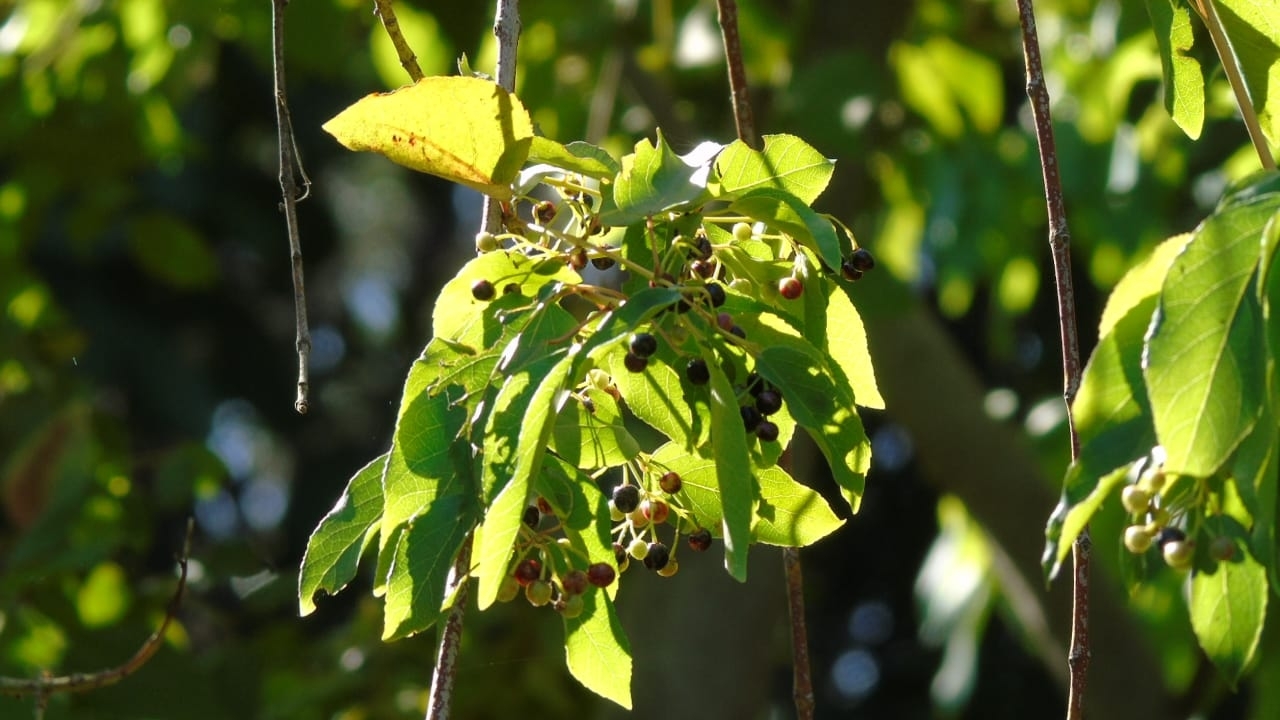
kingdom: Plantae
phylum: Tracheophyta
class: Magnoliopsida
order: Oxalidales
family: Elaeocarpaceae
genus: Aristotelia
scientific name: Aristotelia chilensis
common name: Maquei
